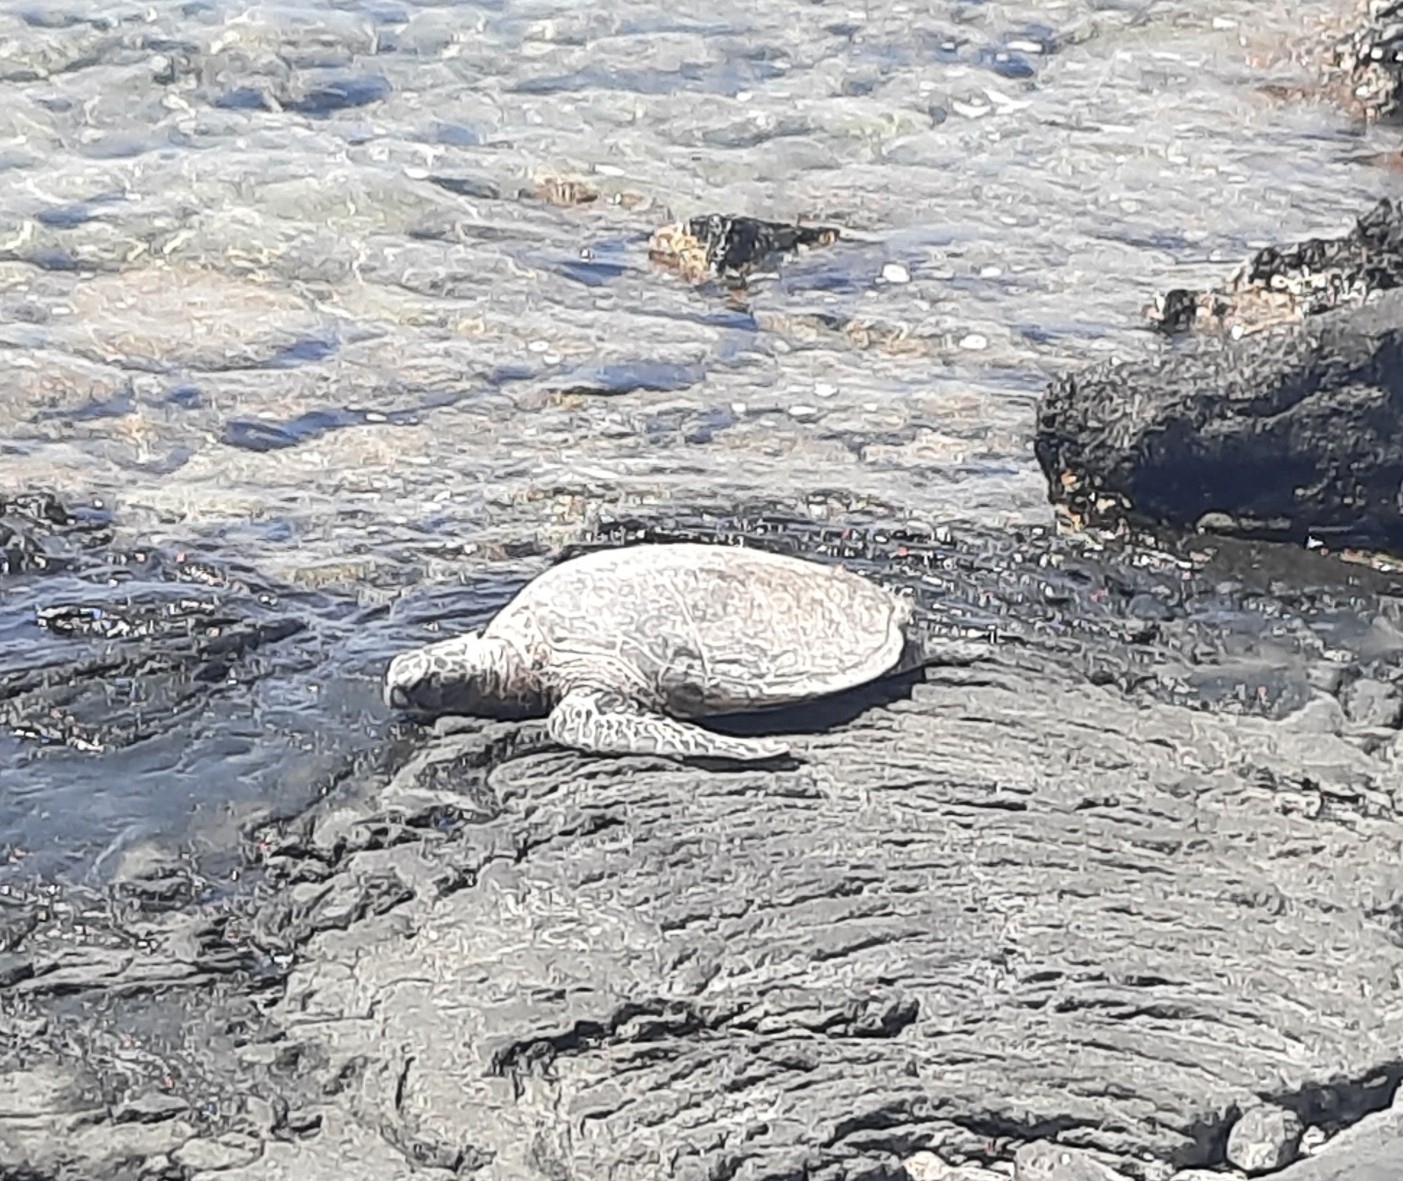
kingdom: Animalia
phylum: Chordata
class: Testudines
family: Cheloniidae
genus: Chelonia
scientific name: Chelonia mydas
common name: Green turtle
